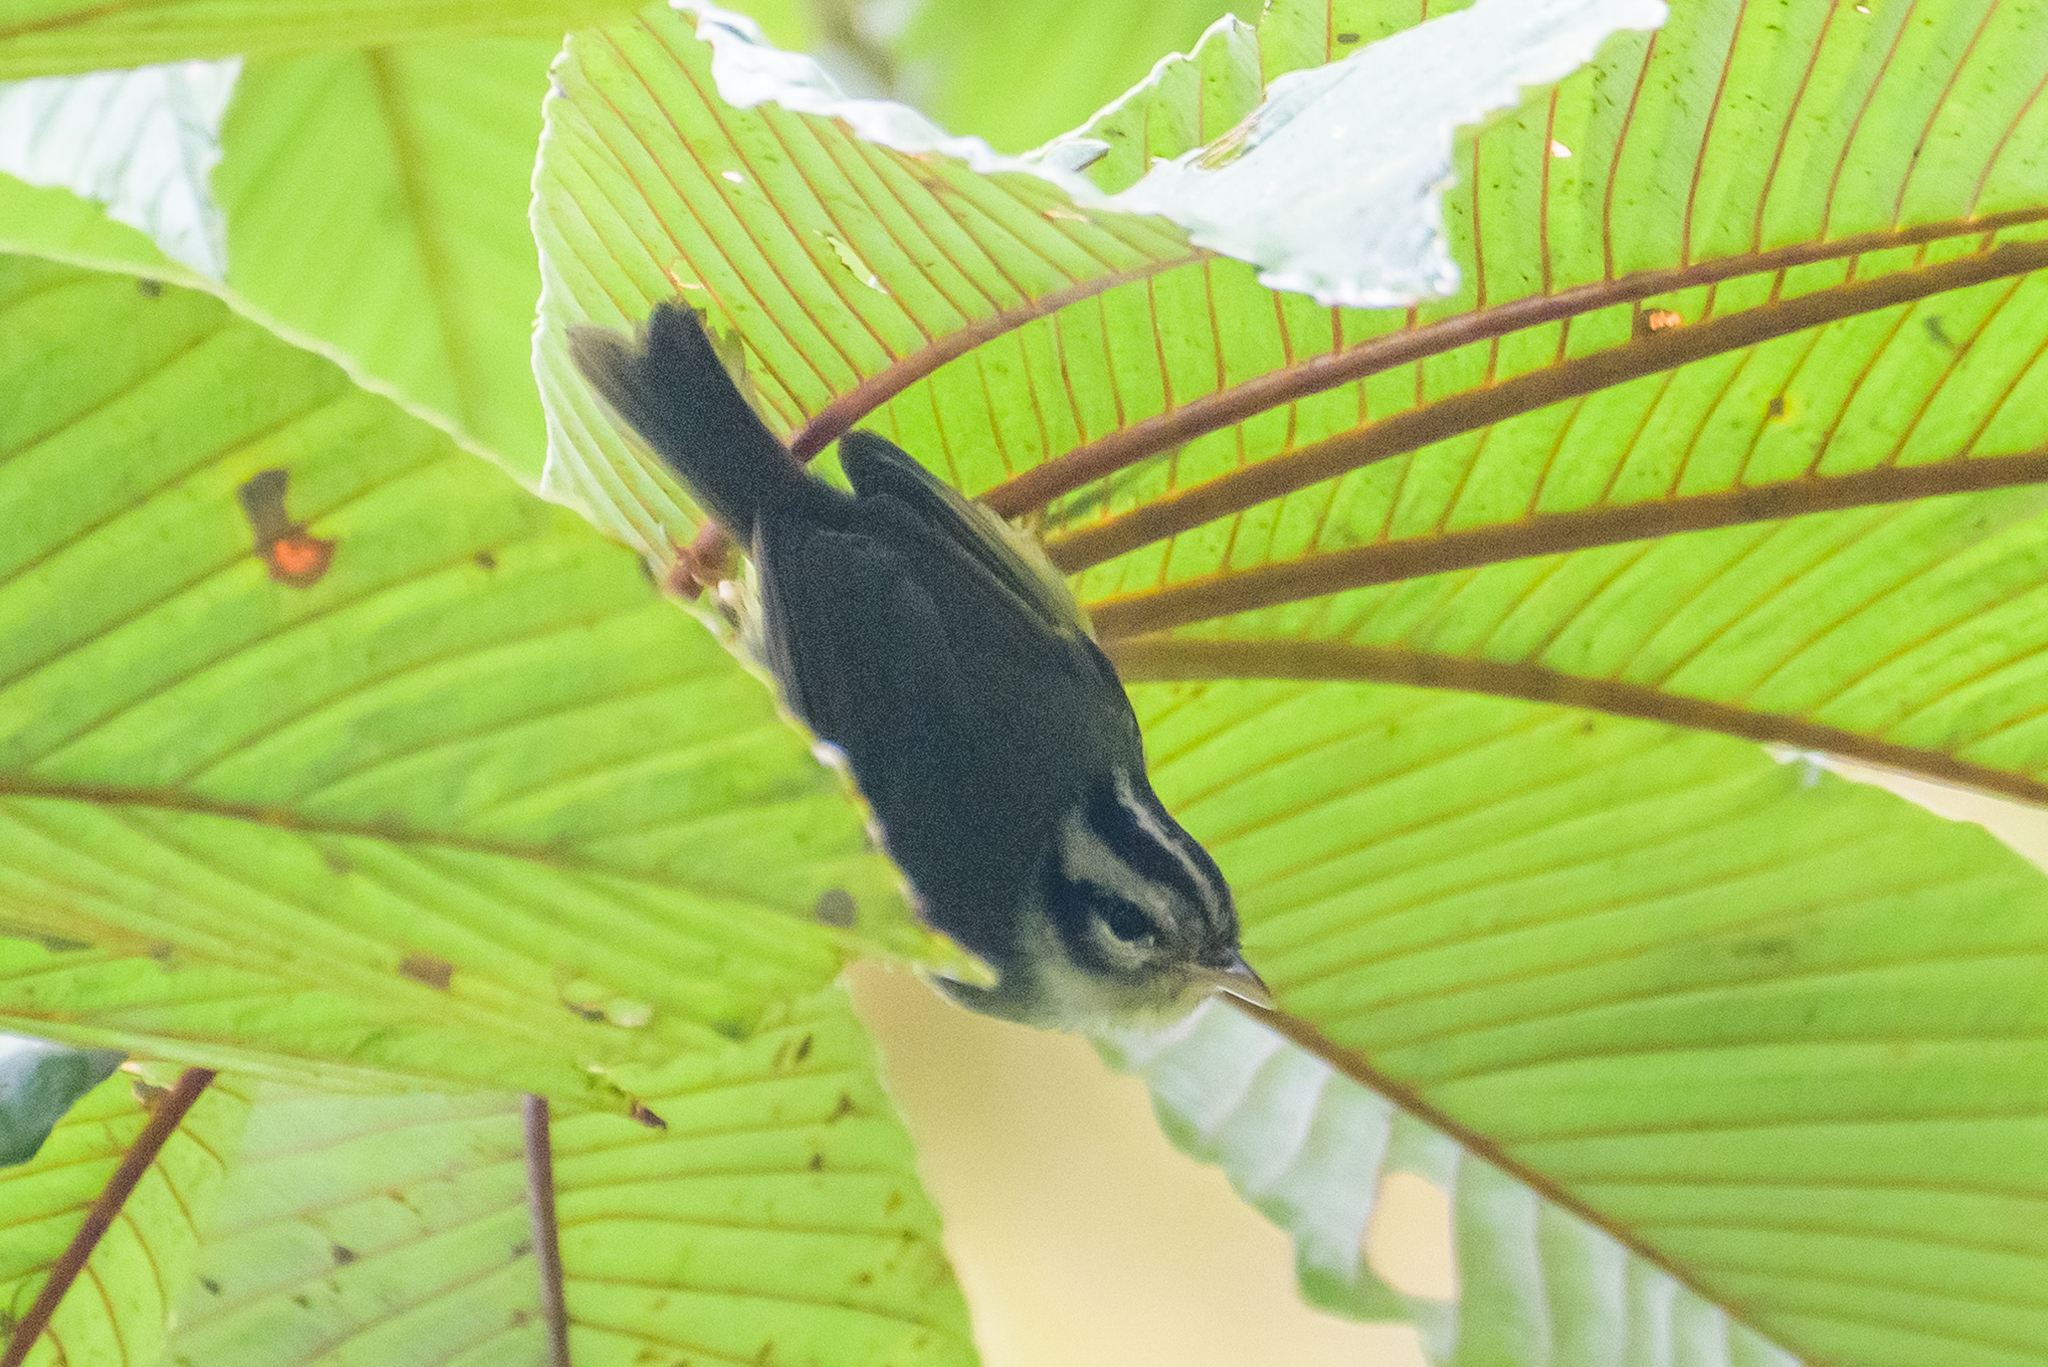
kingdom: Animalia
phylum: Chordata
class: Aves
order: Passeriformes
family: Parulidae
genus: Basileuterus
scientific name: Basileuterus melanotis
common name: Black-eared warbler
